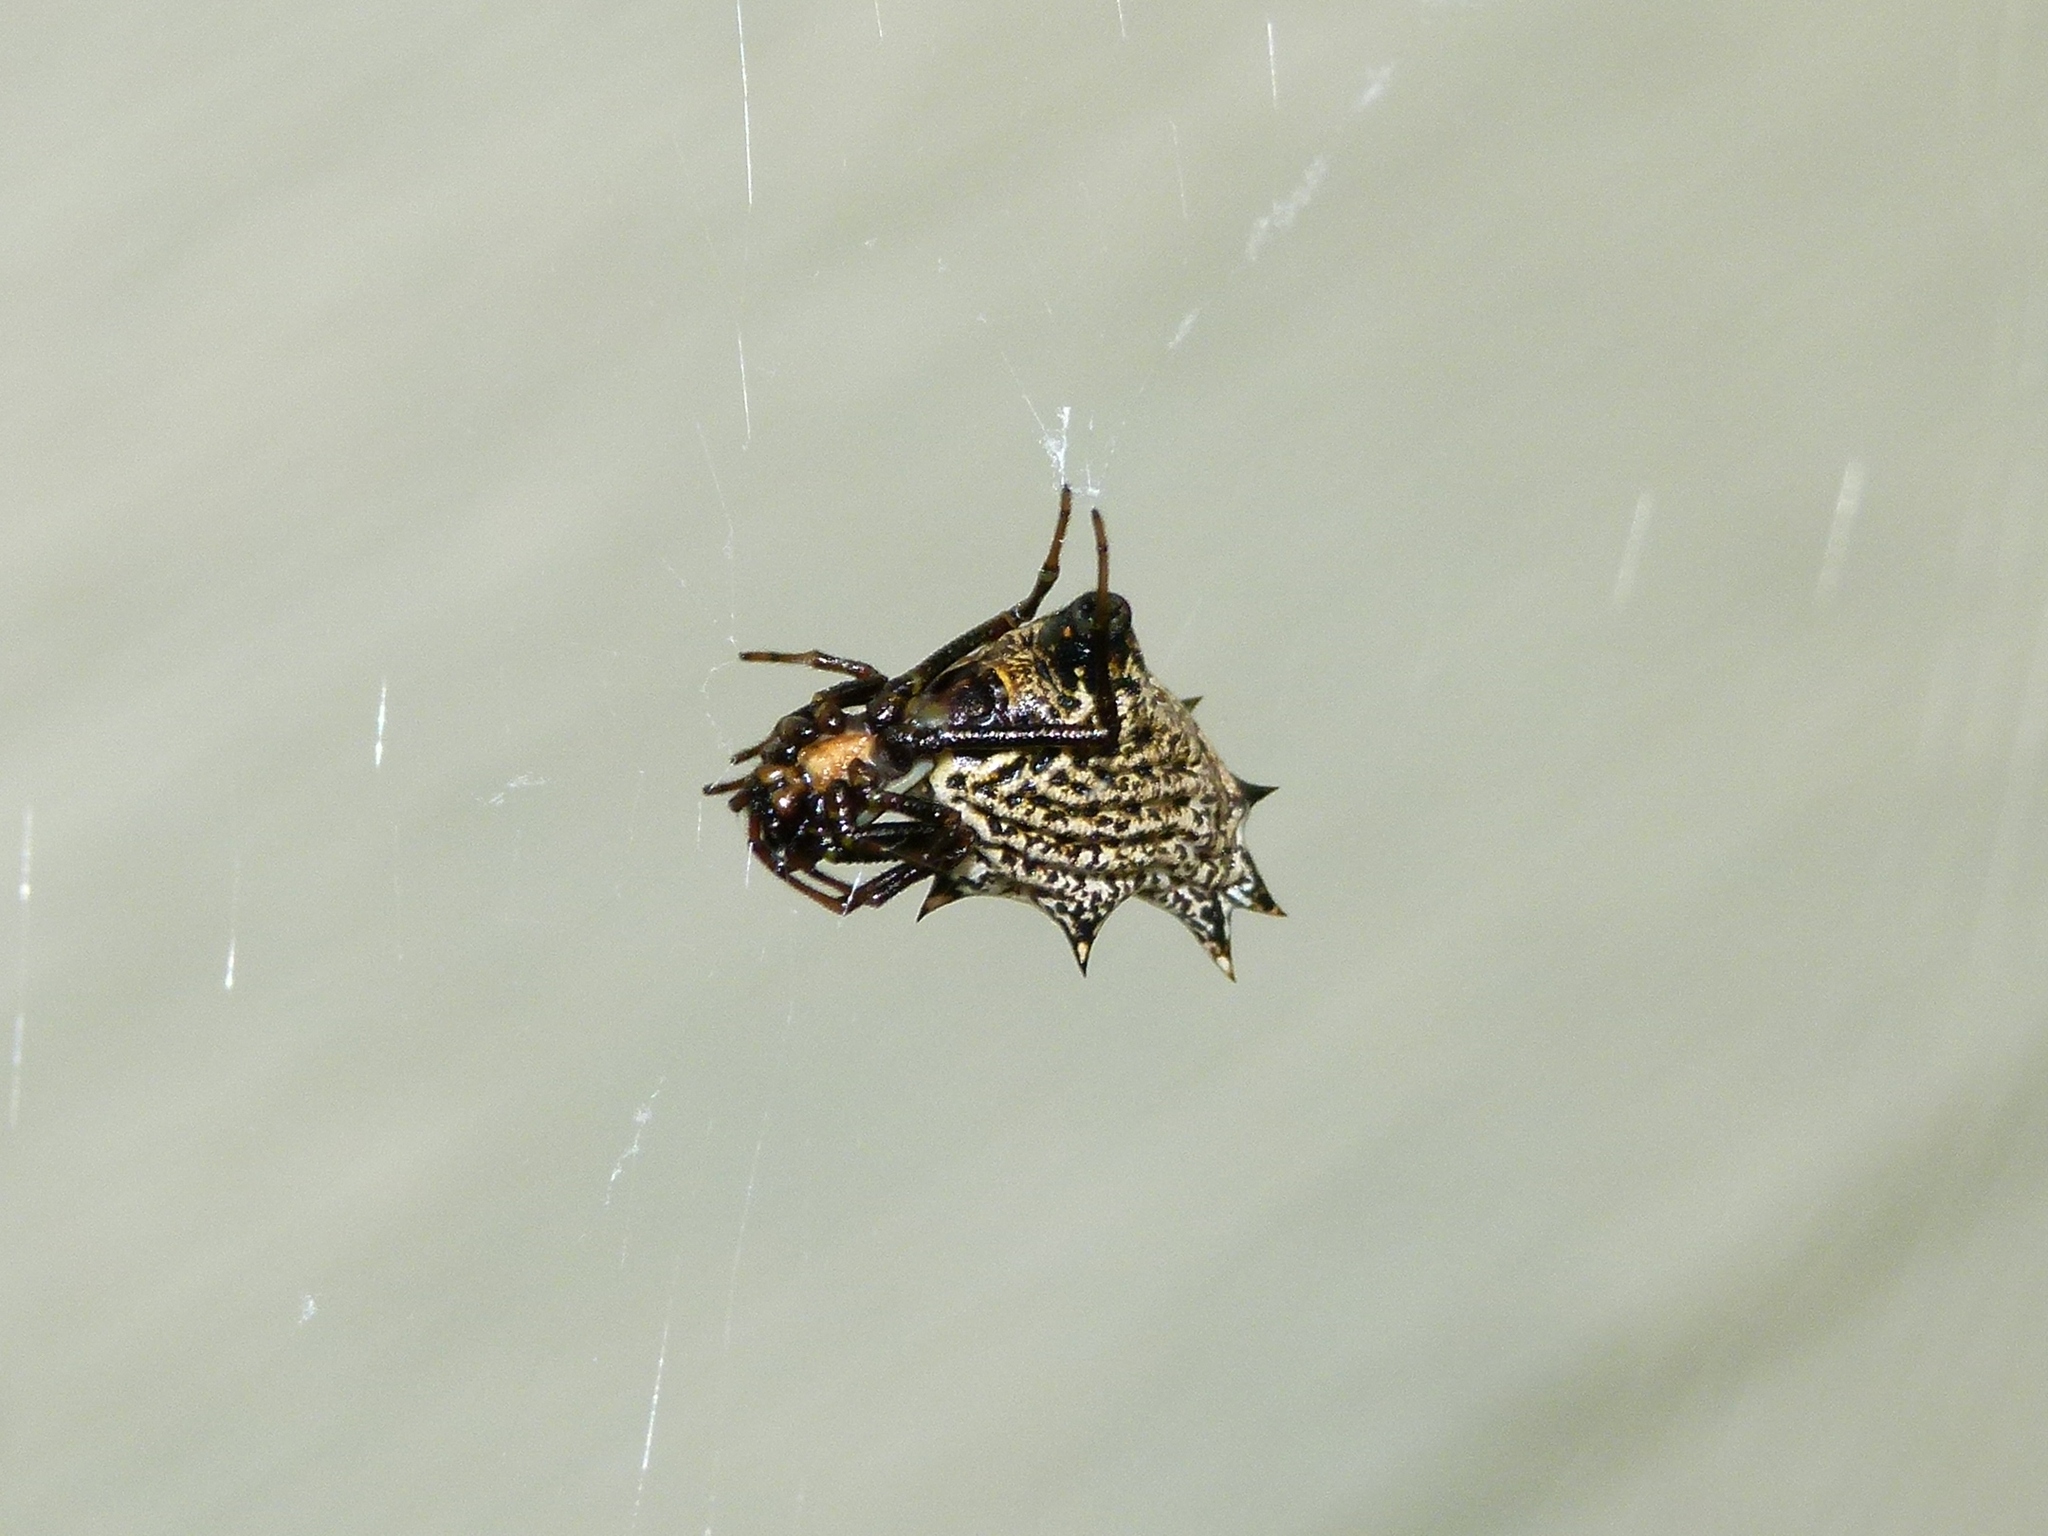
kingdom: Animalia
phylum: Arthropoda
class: Arachnida
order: Araneae
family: Araneidae
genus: Micrathena
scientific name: Micrathena gracilis
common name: Orb weavers
